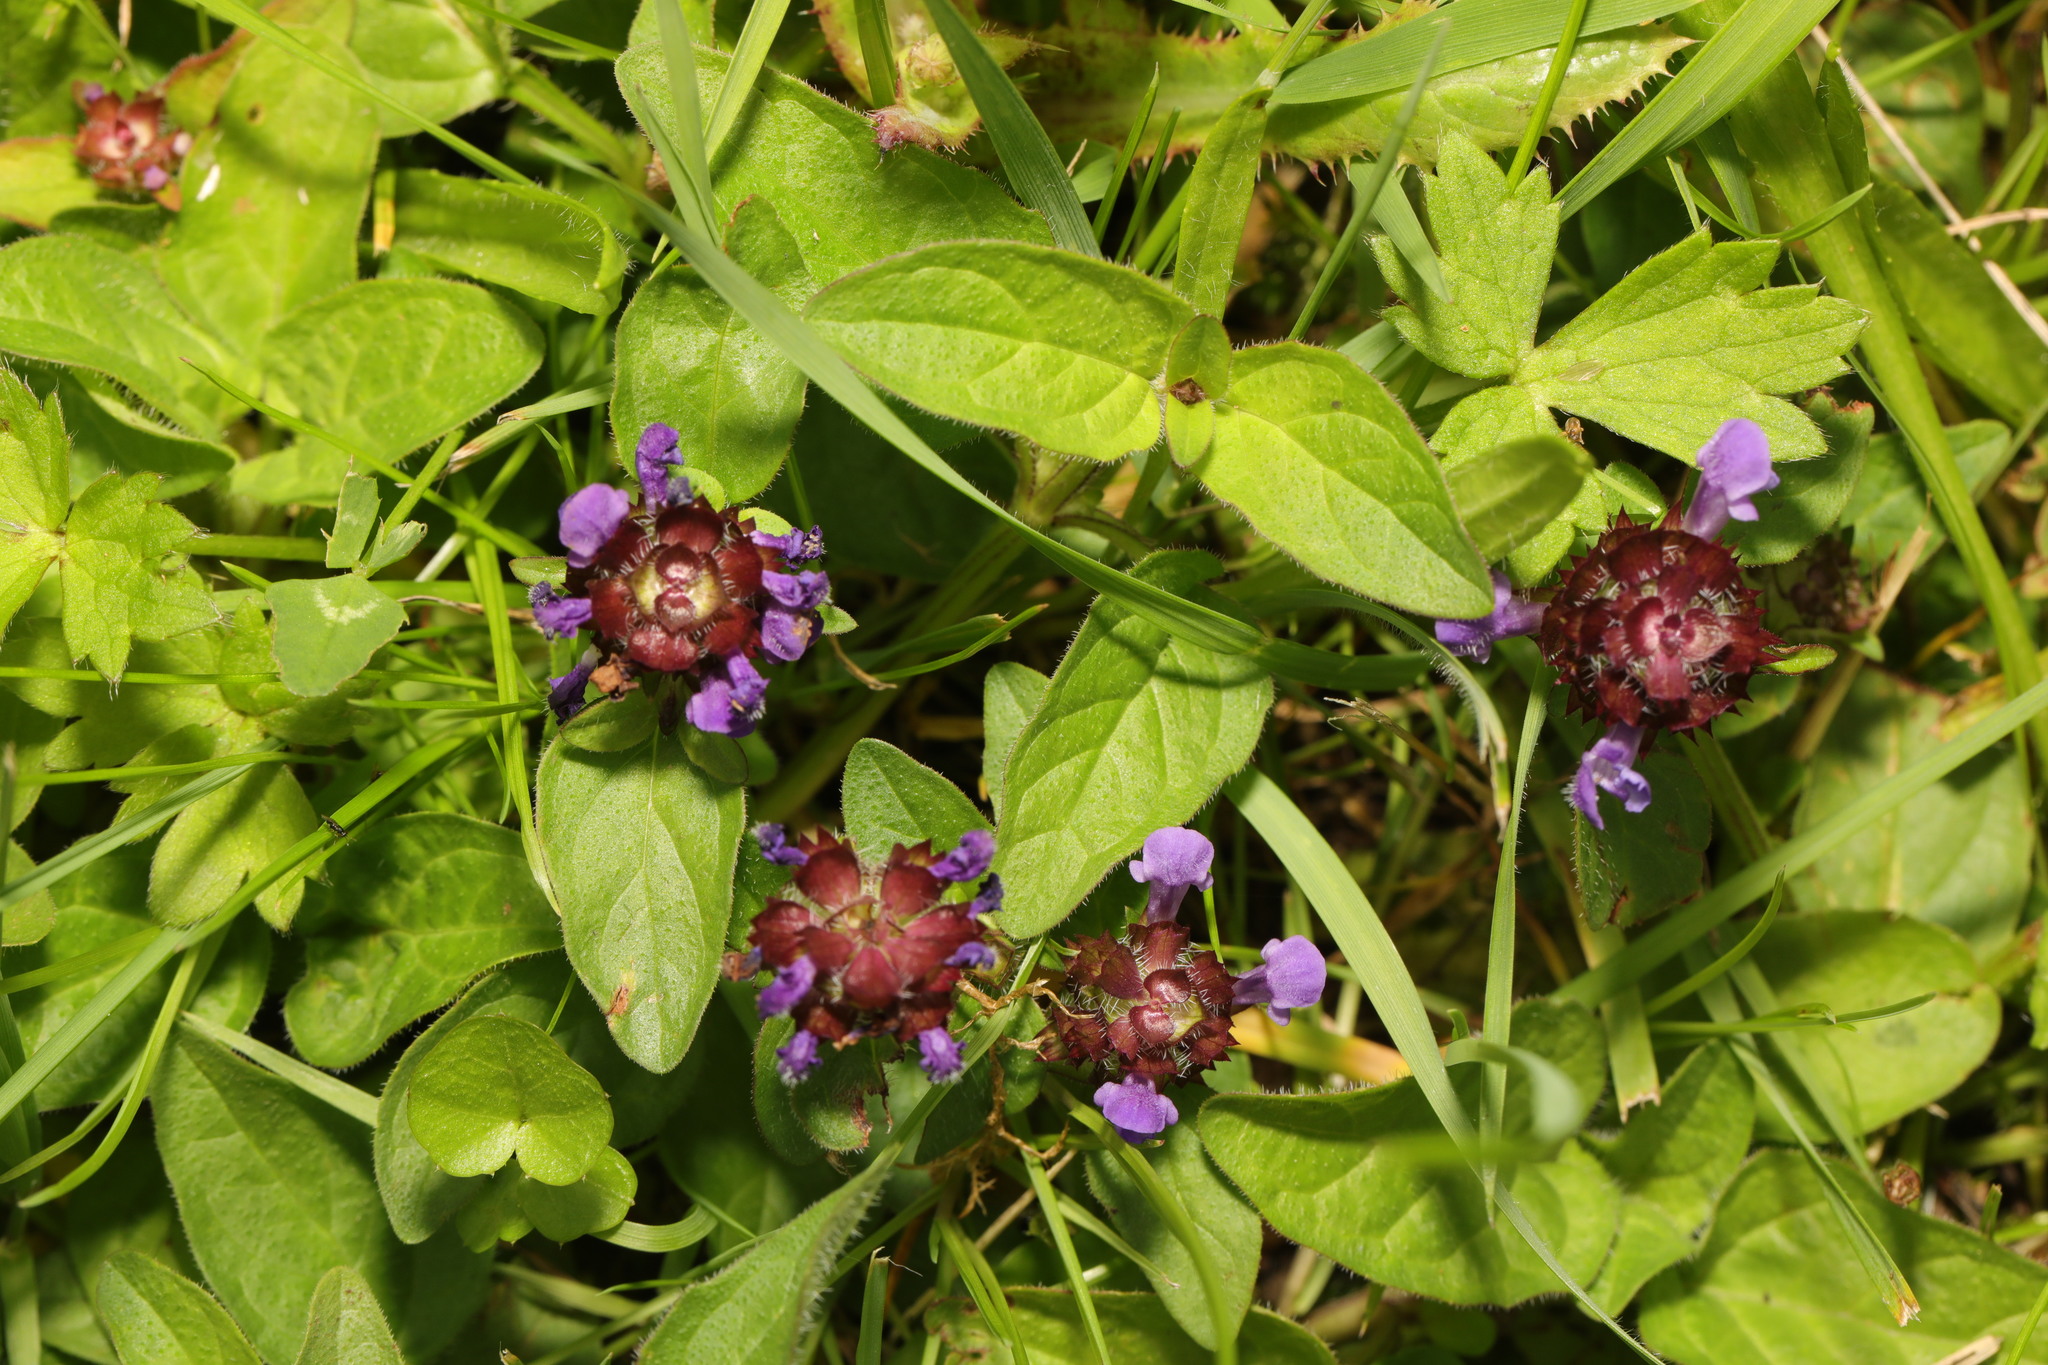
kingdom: Plantae
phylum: Tracheophyta
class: Magnoliopsida
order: Lamiales
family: Lamiaceae
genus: Prunella
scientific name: Prunella vulgaris
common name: Heal-all
